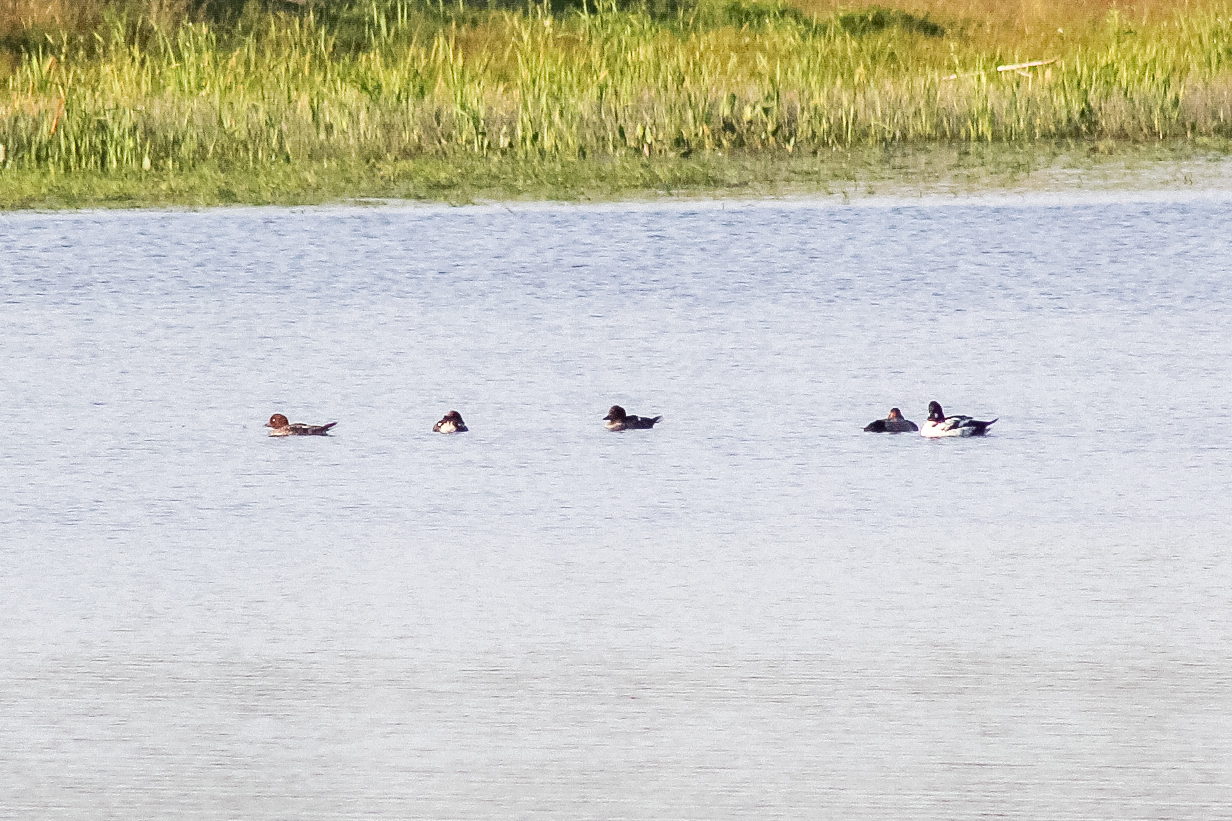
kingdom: Animalia
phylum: Chordata
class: Aves
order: Anseriformes
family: Anatidae
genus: Bucephala
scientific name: Bucephala clangula
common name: Common goldeneye
